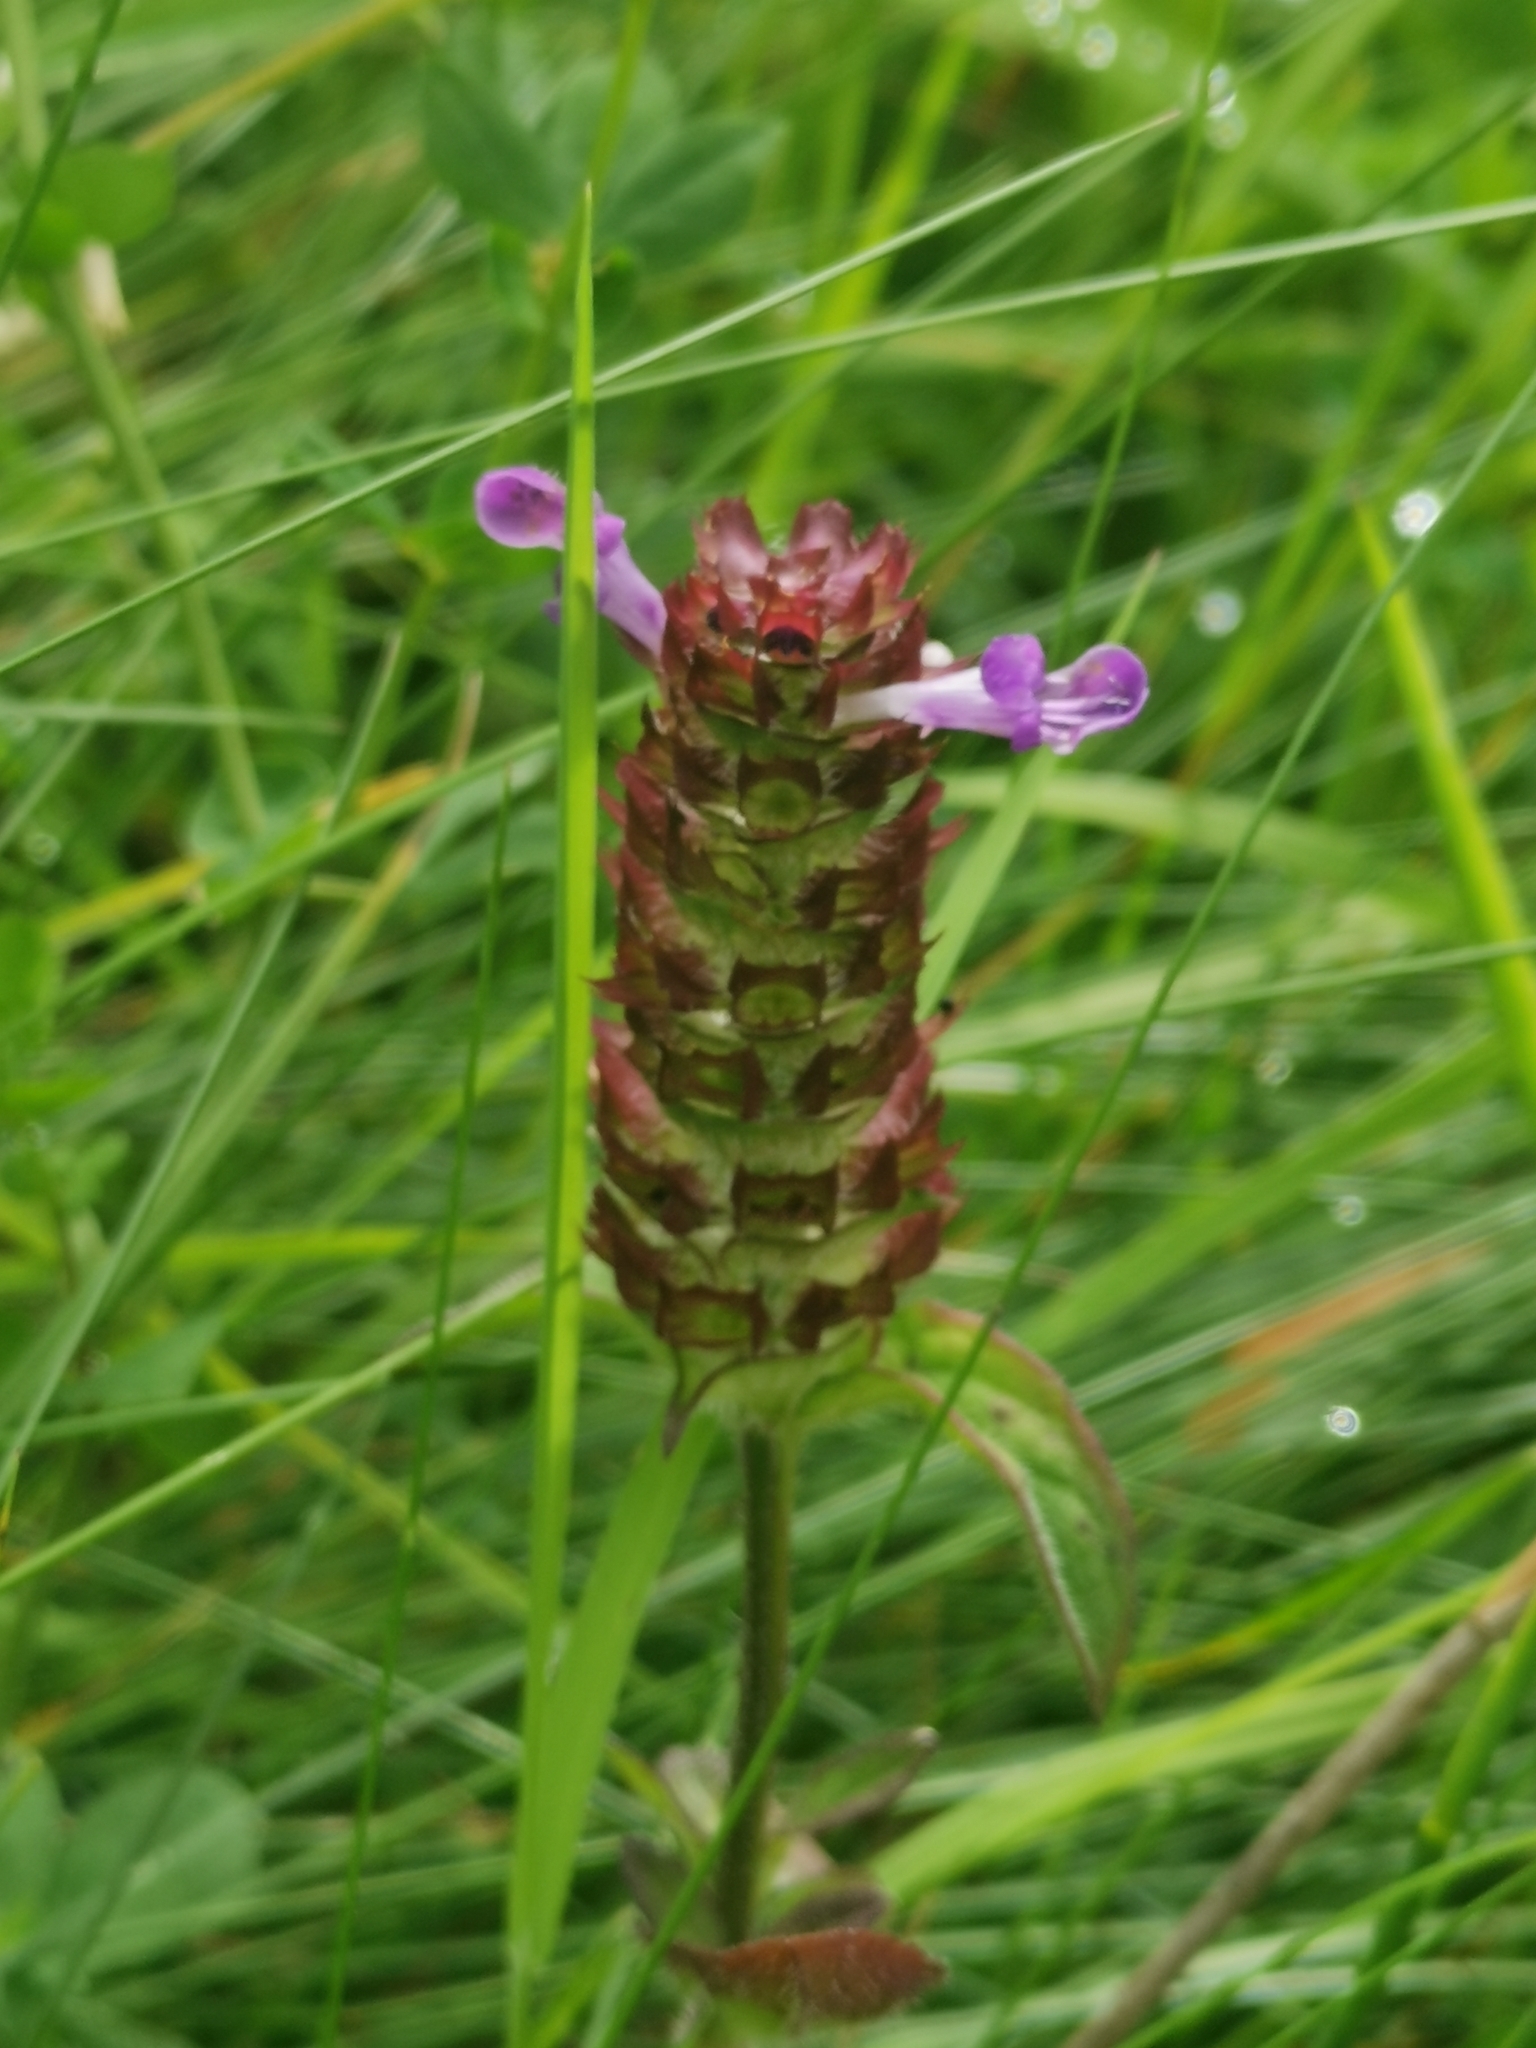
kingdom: Plantae
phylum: Tracheophyta
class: Magnoliopsida
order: Lamiales
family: Lamiaceae
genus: Prunella
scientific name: Prunella vulgaris
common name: Heal-all
